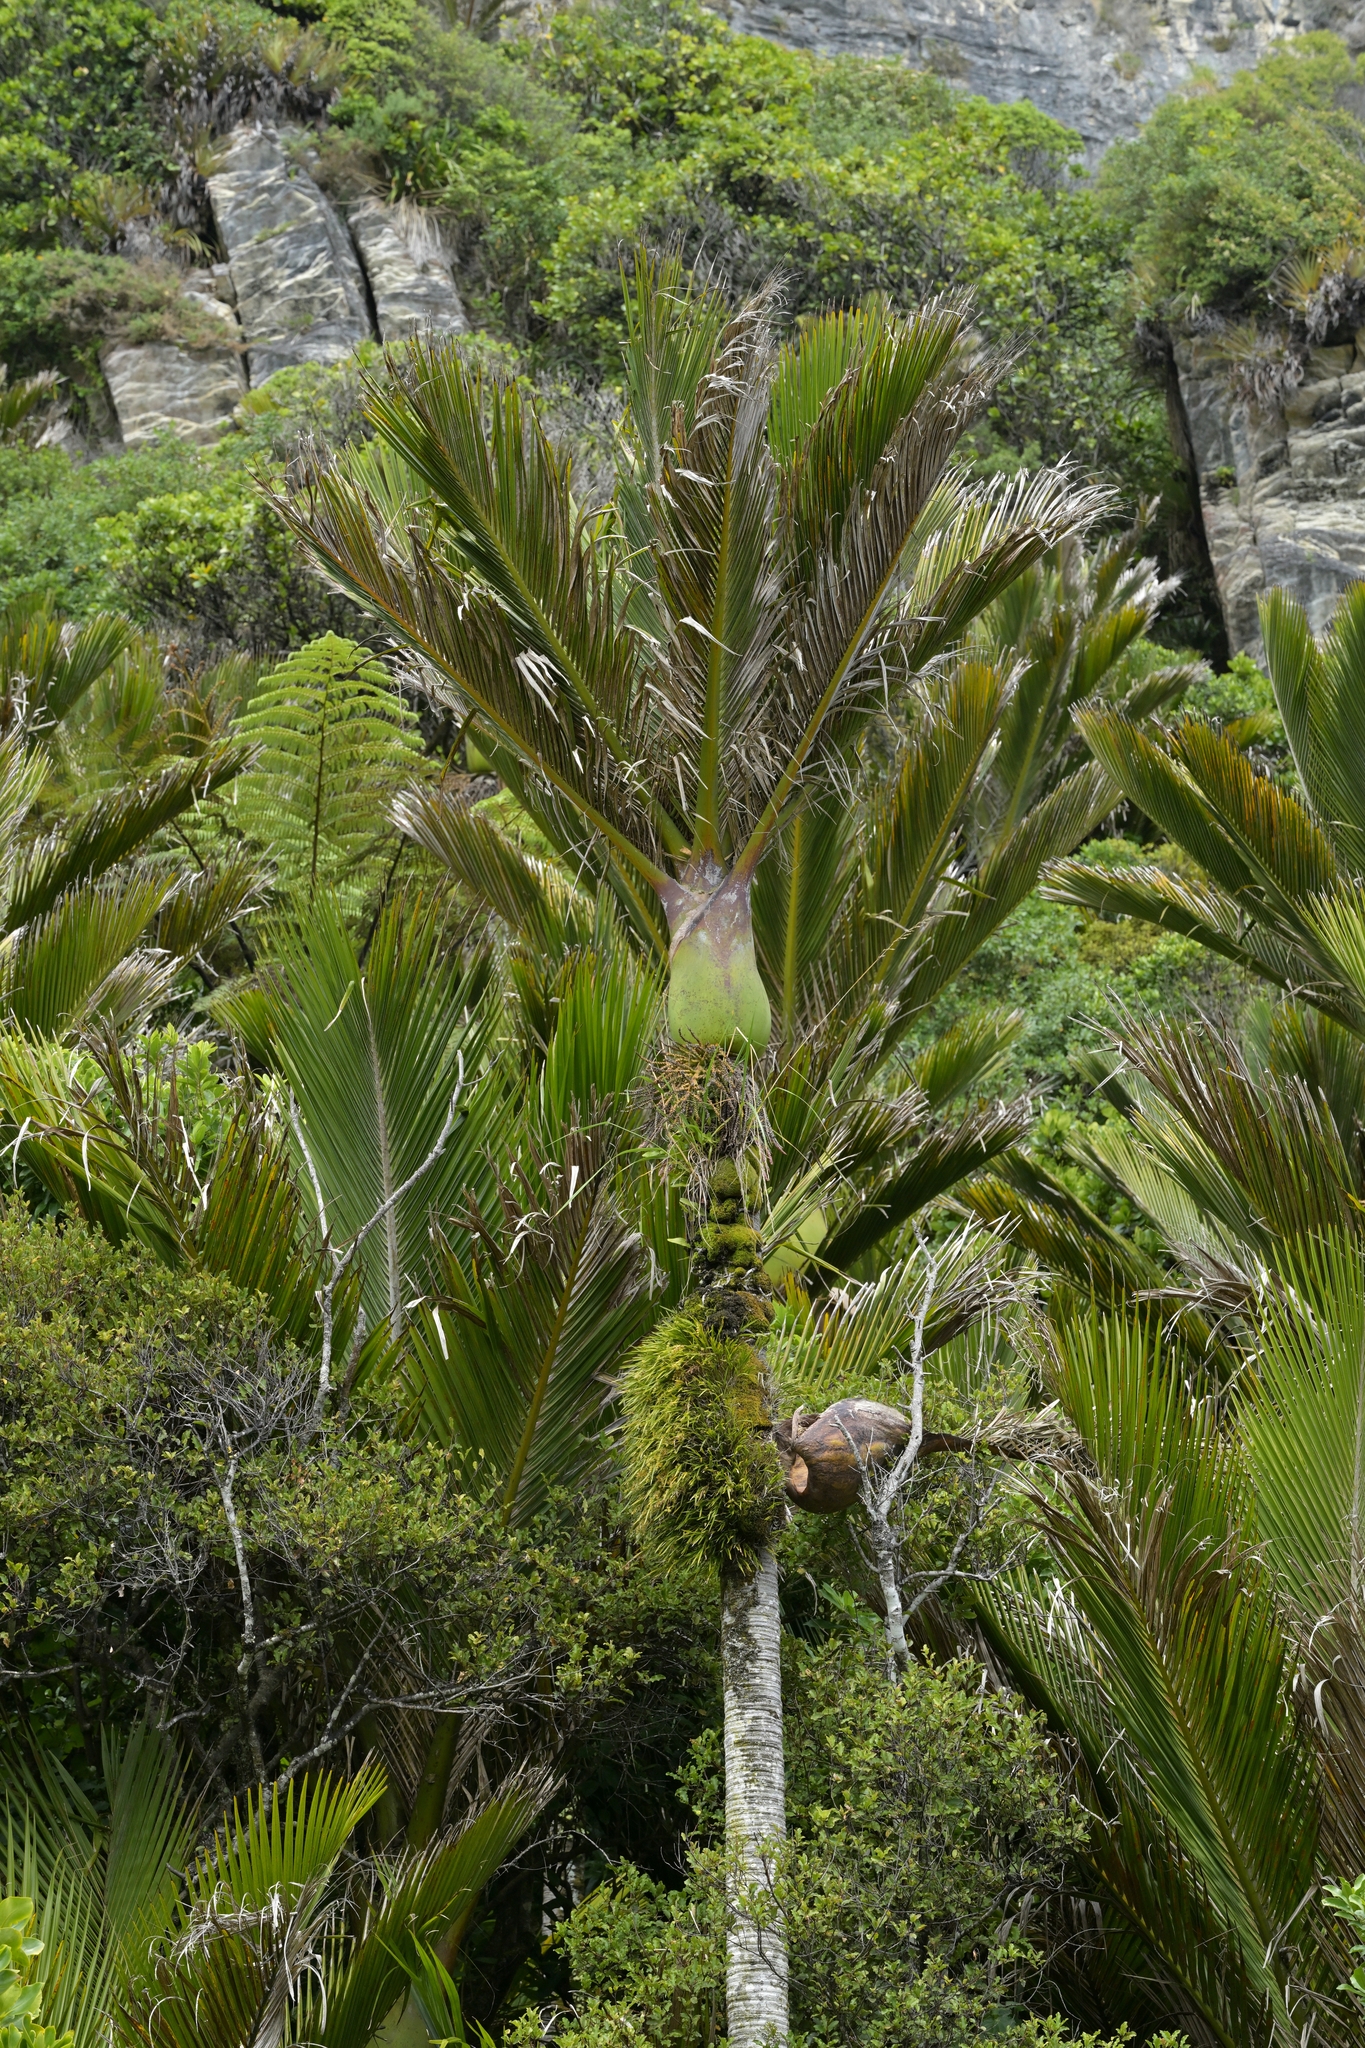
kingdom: Plantae
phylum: Tracheophyta
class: Liliopsida
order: Arecales
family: Arecaceae
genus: Rhopalostylis
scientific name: Rhopalostylis sapida
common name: Feather-duster palm
